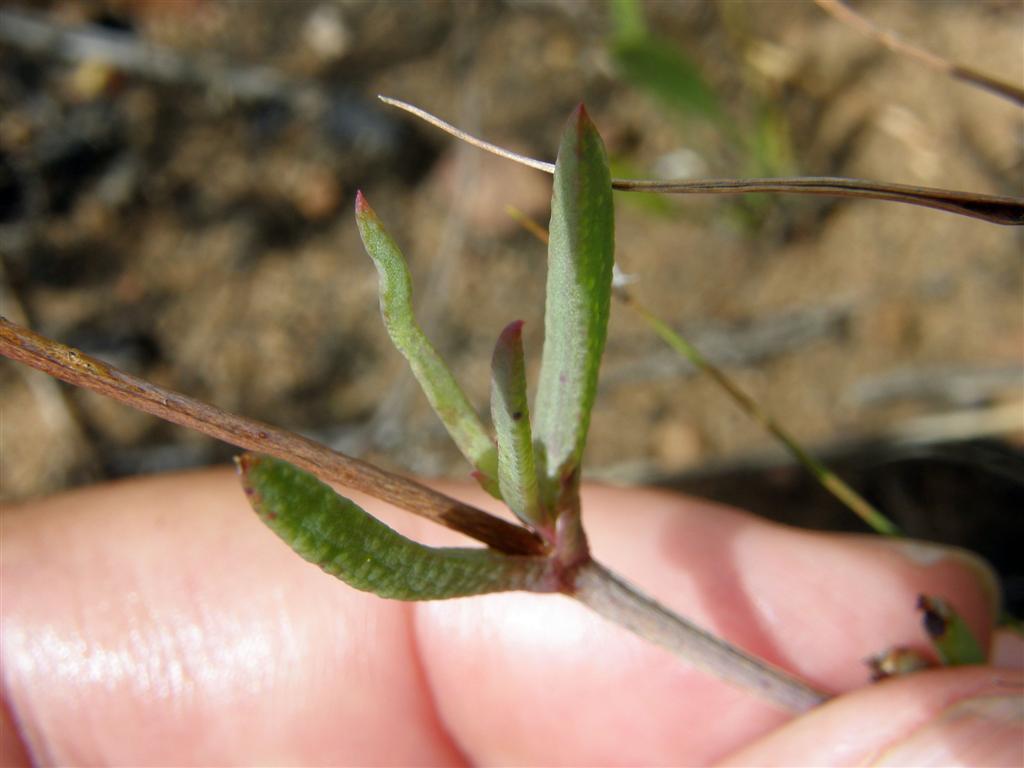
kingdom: Plantae
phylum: Tracheophyta
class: Magnoliopsida
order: Caryophyllales
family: Aizoaceae
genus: Erepsia
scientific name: Erepsia aspera
